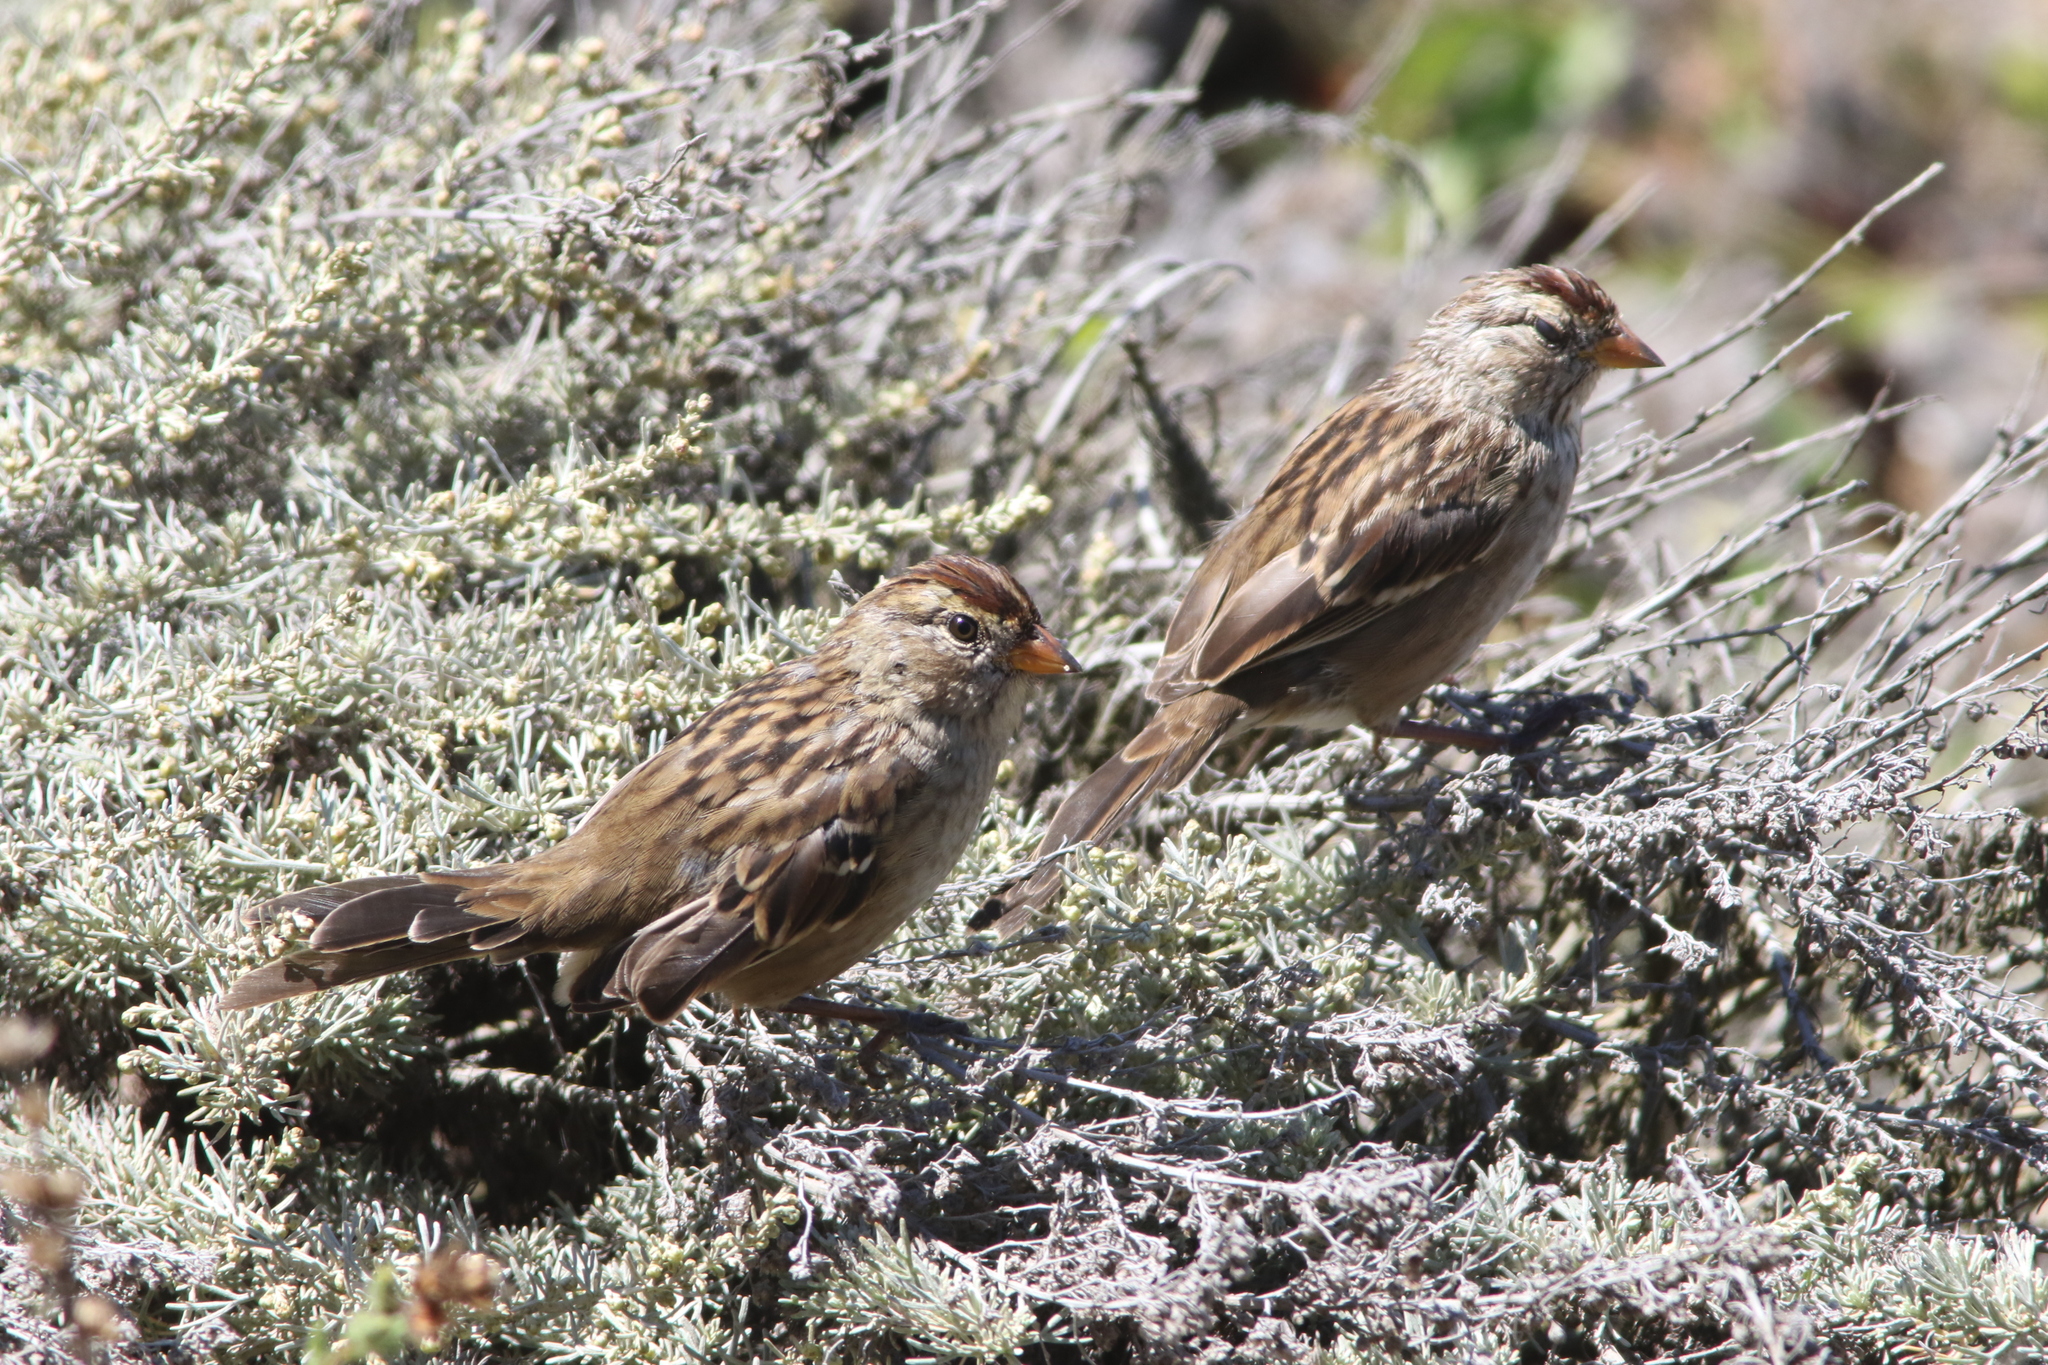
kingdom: Animalia
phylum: Chordata
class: Aves
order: Passeriformes
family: Passerellidae
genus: Zonotrichia
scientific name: Zonotrichia leucophrys
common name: White-crowned sparrow
